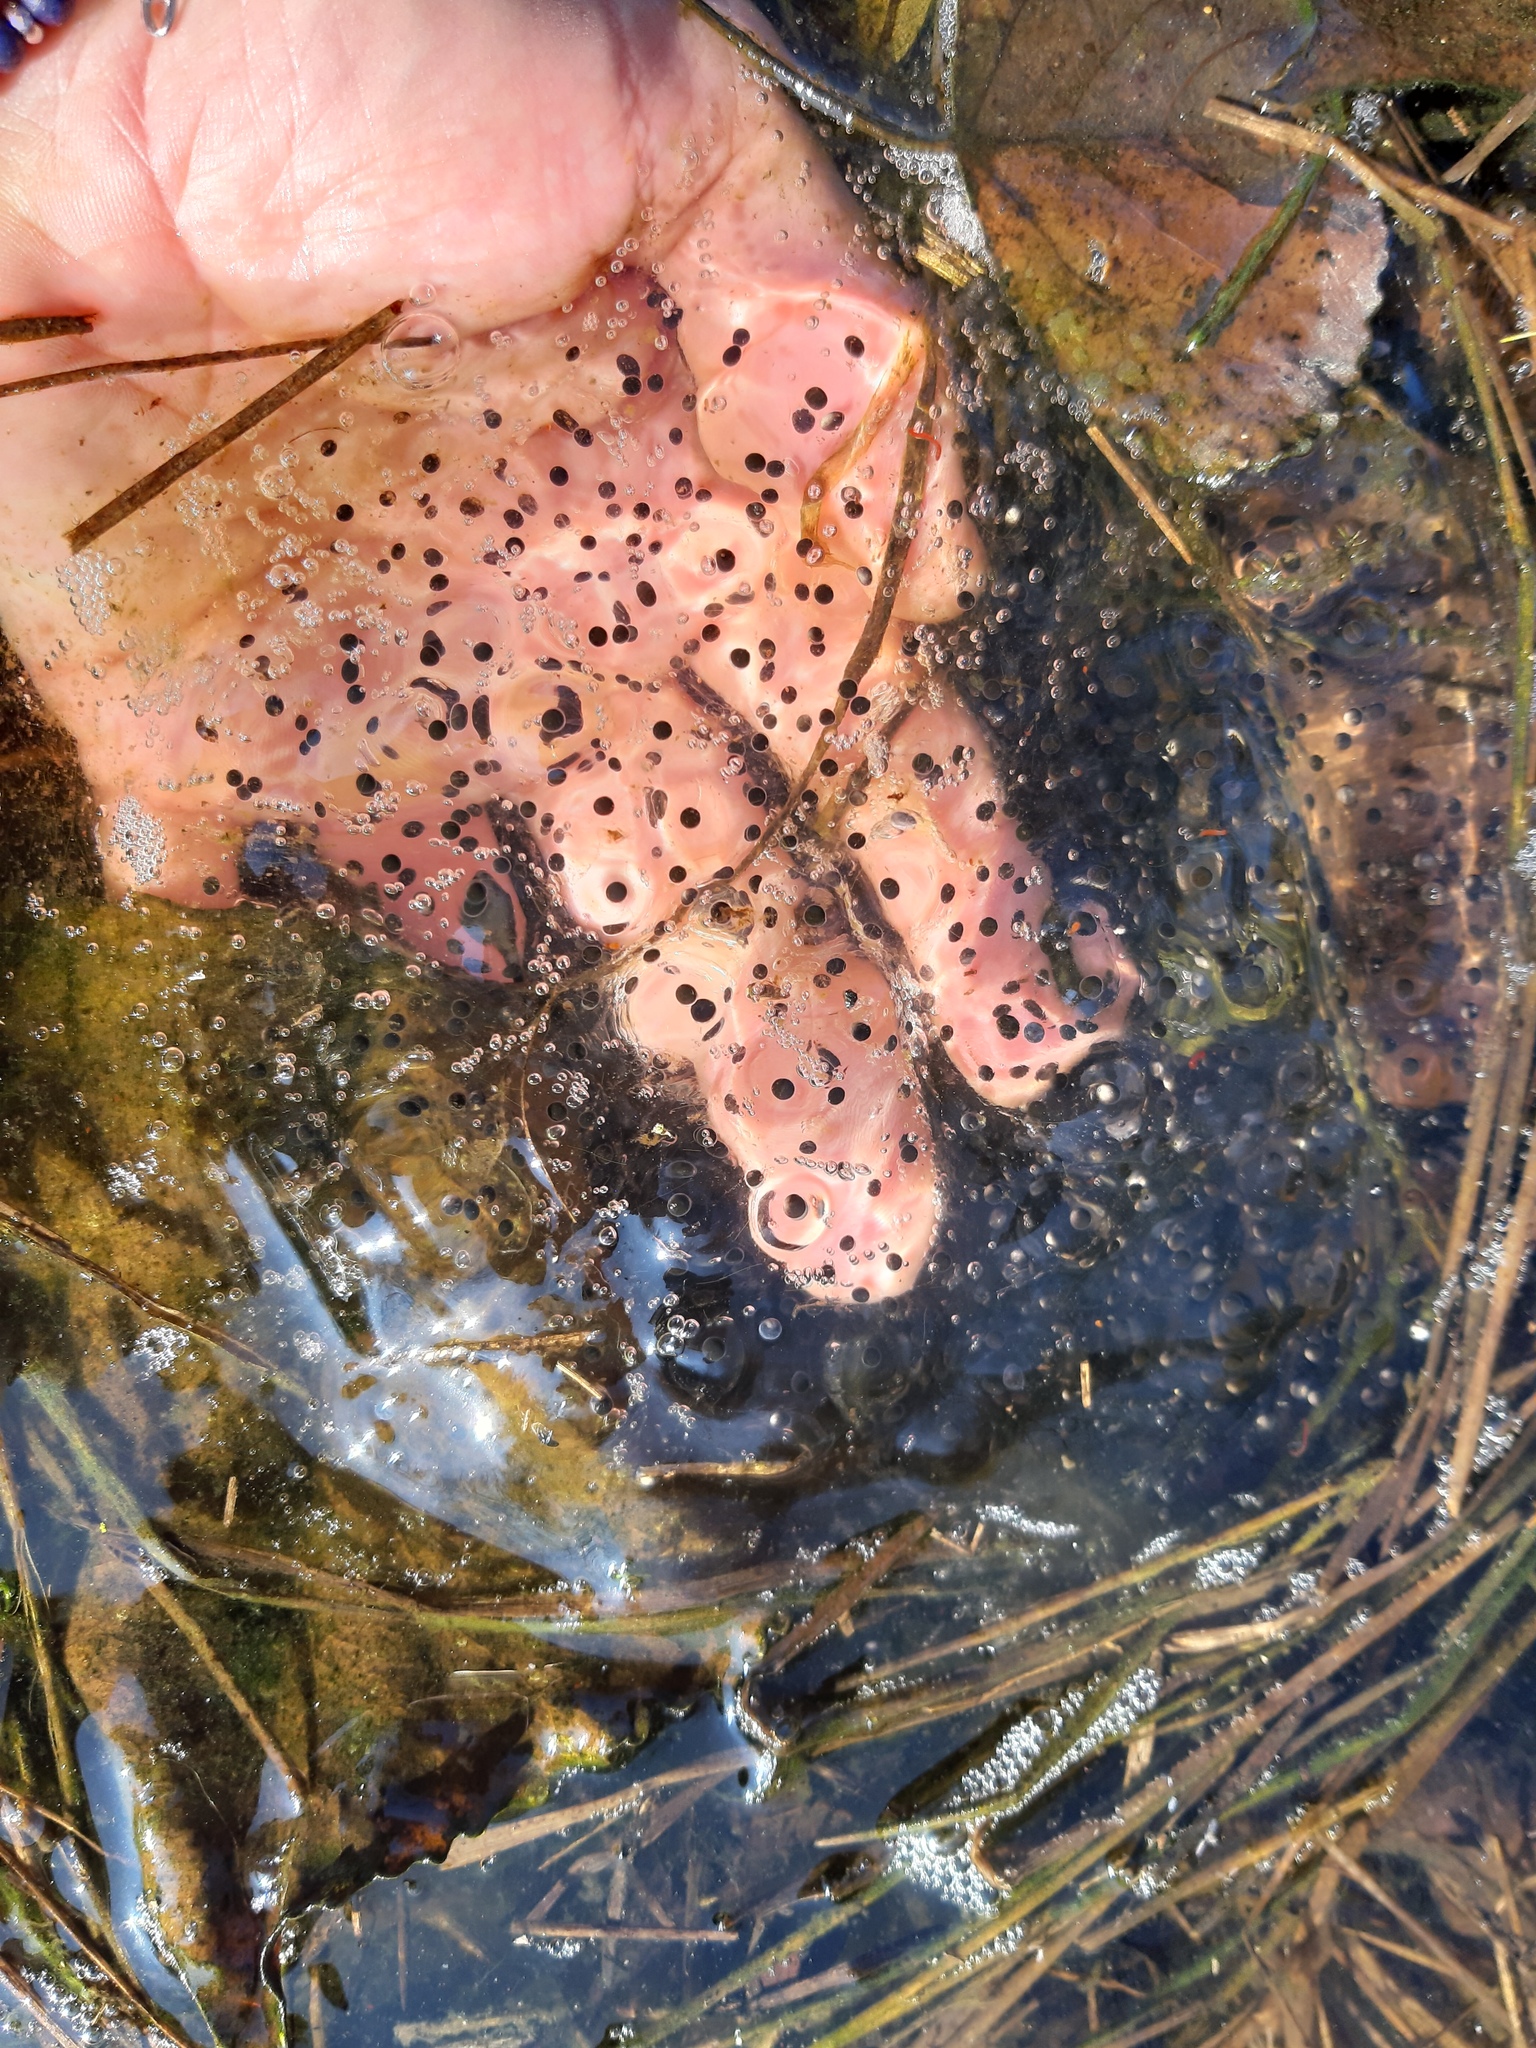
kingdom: Animalia
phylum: Chordata
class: Amphibia
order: Anura
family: Ranidae
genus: Rana
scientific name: Rana dalmatina
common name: Agile frog
